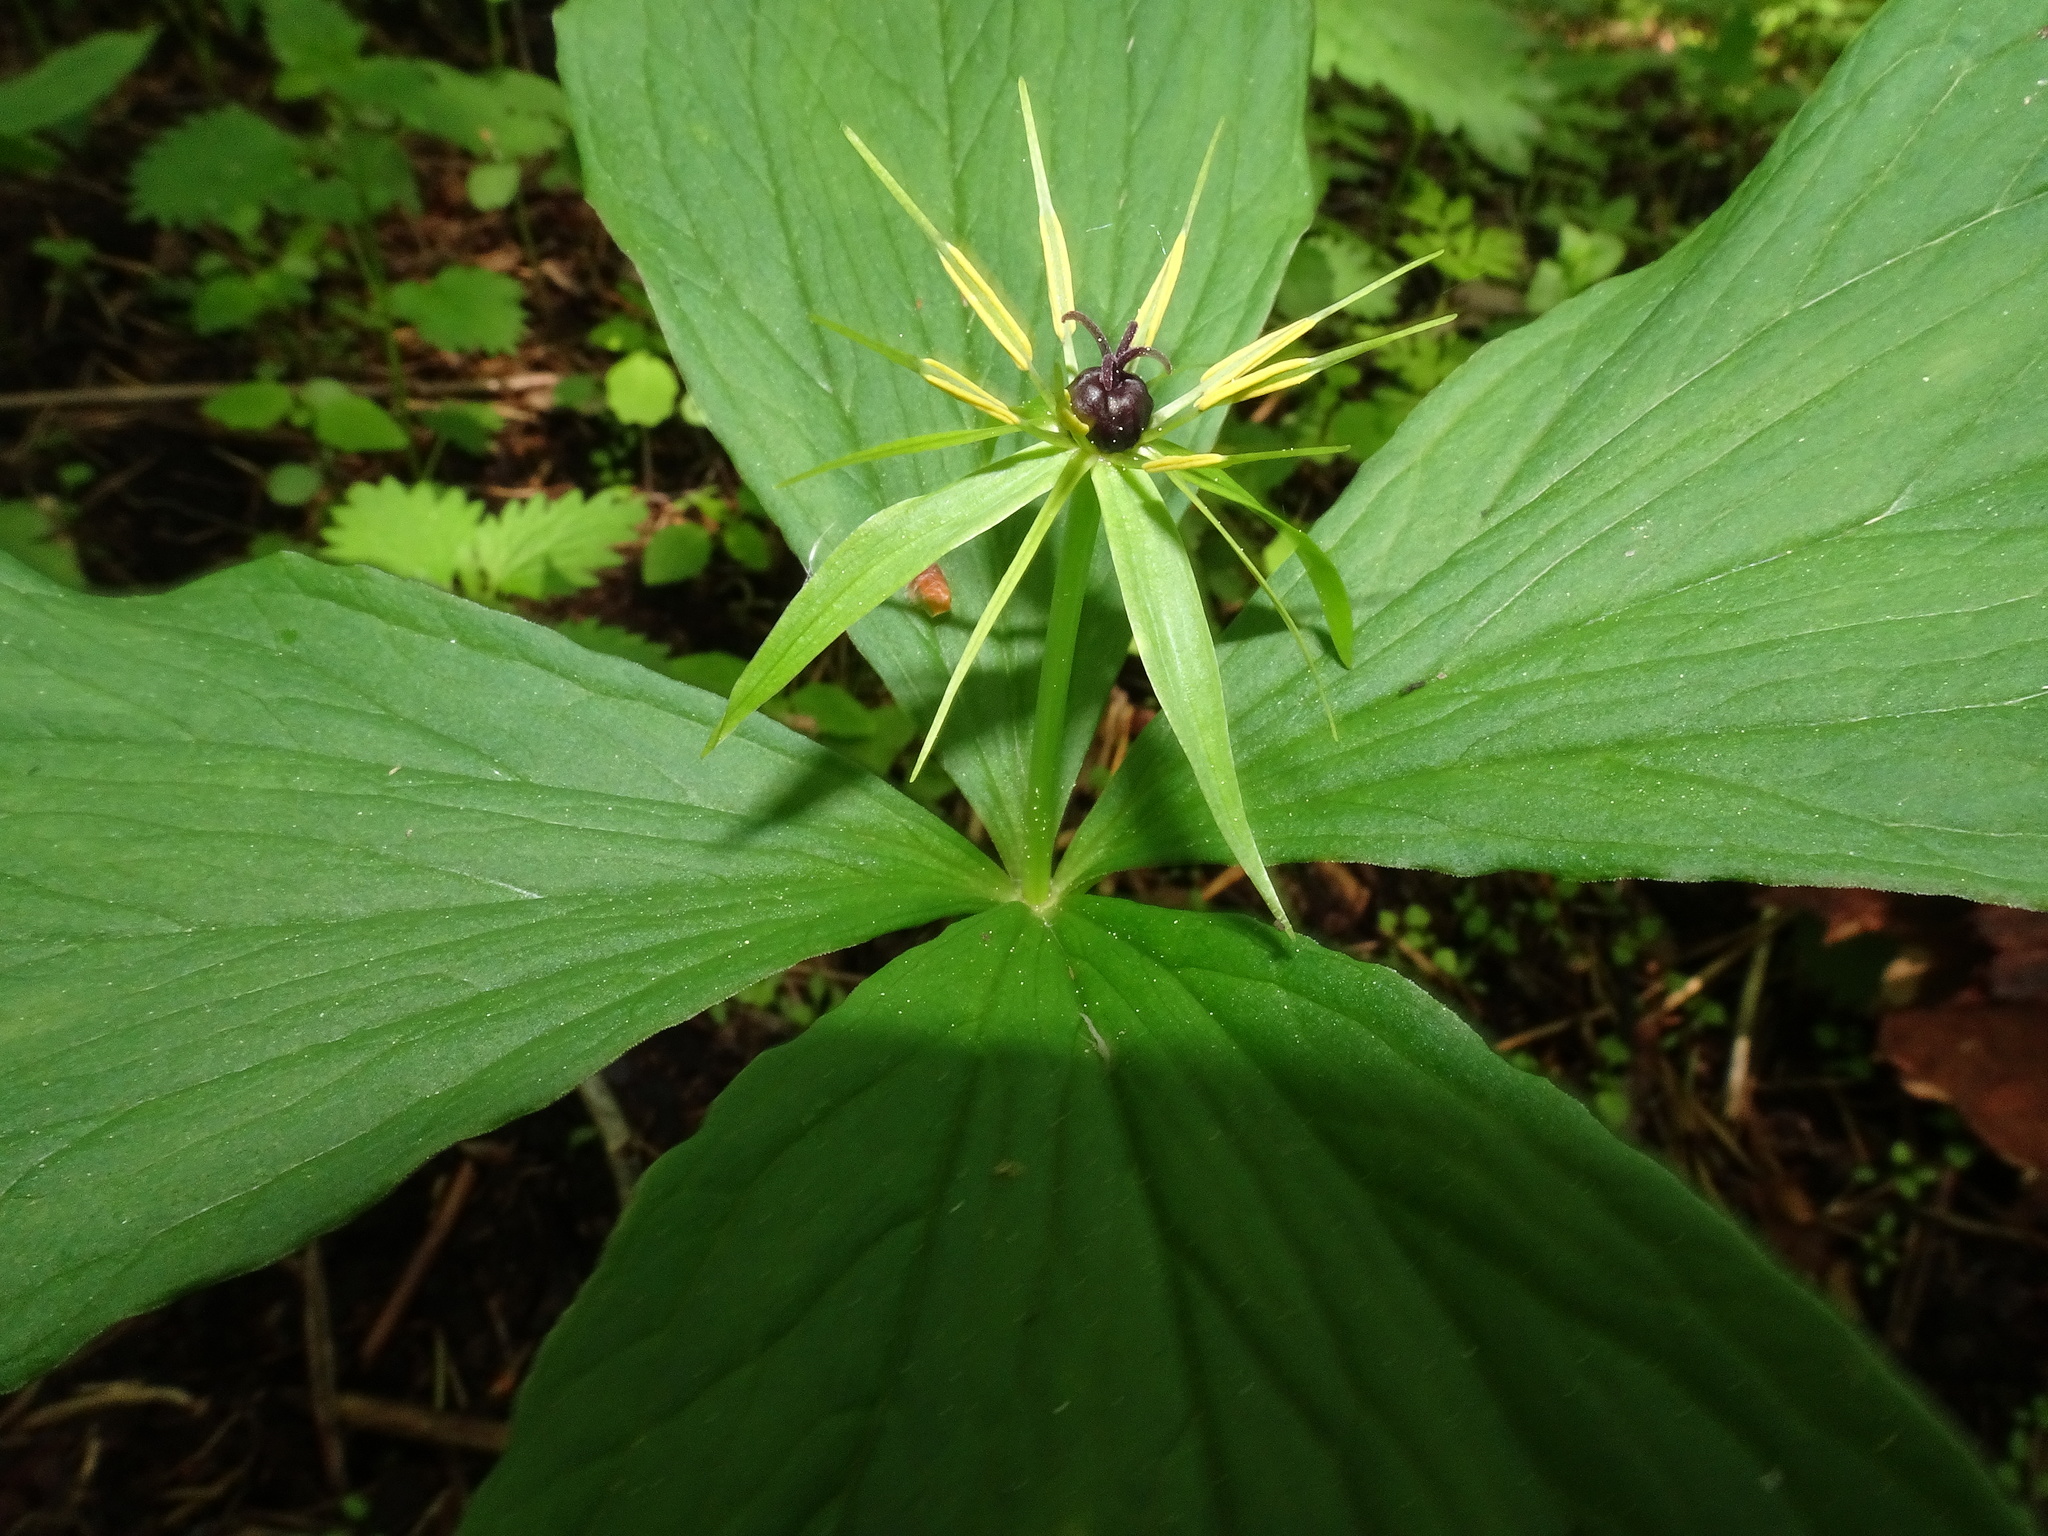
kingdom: Plantae
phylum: Tracheophyta
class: Liliopsida
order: Liliales
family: Melanthiaceae
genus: Paris
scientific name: Paris quadrifolia
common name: Herb-paris
